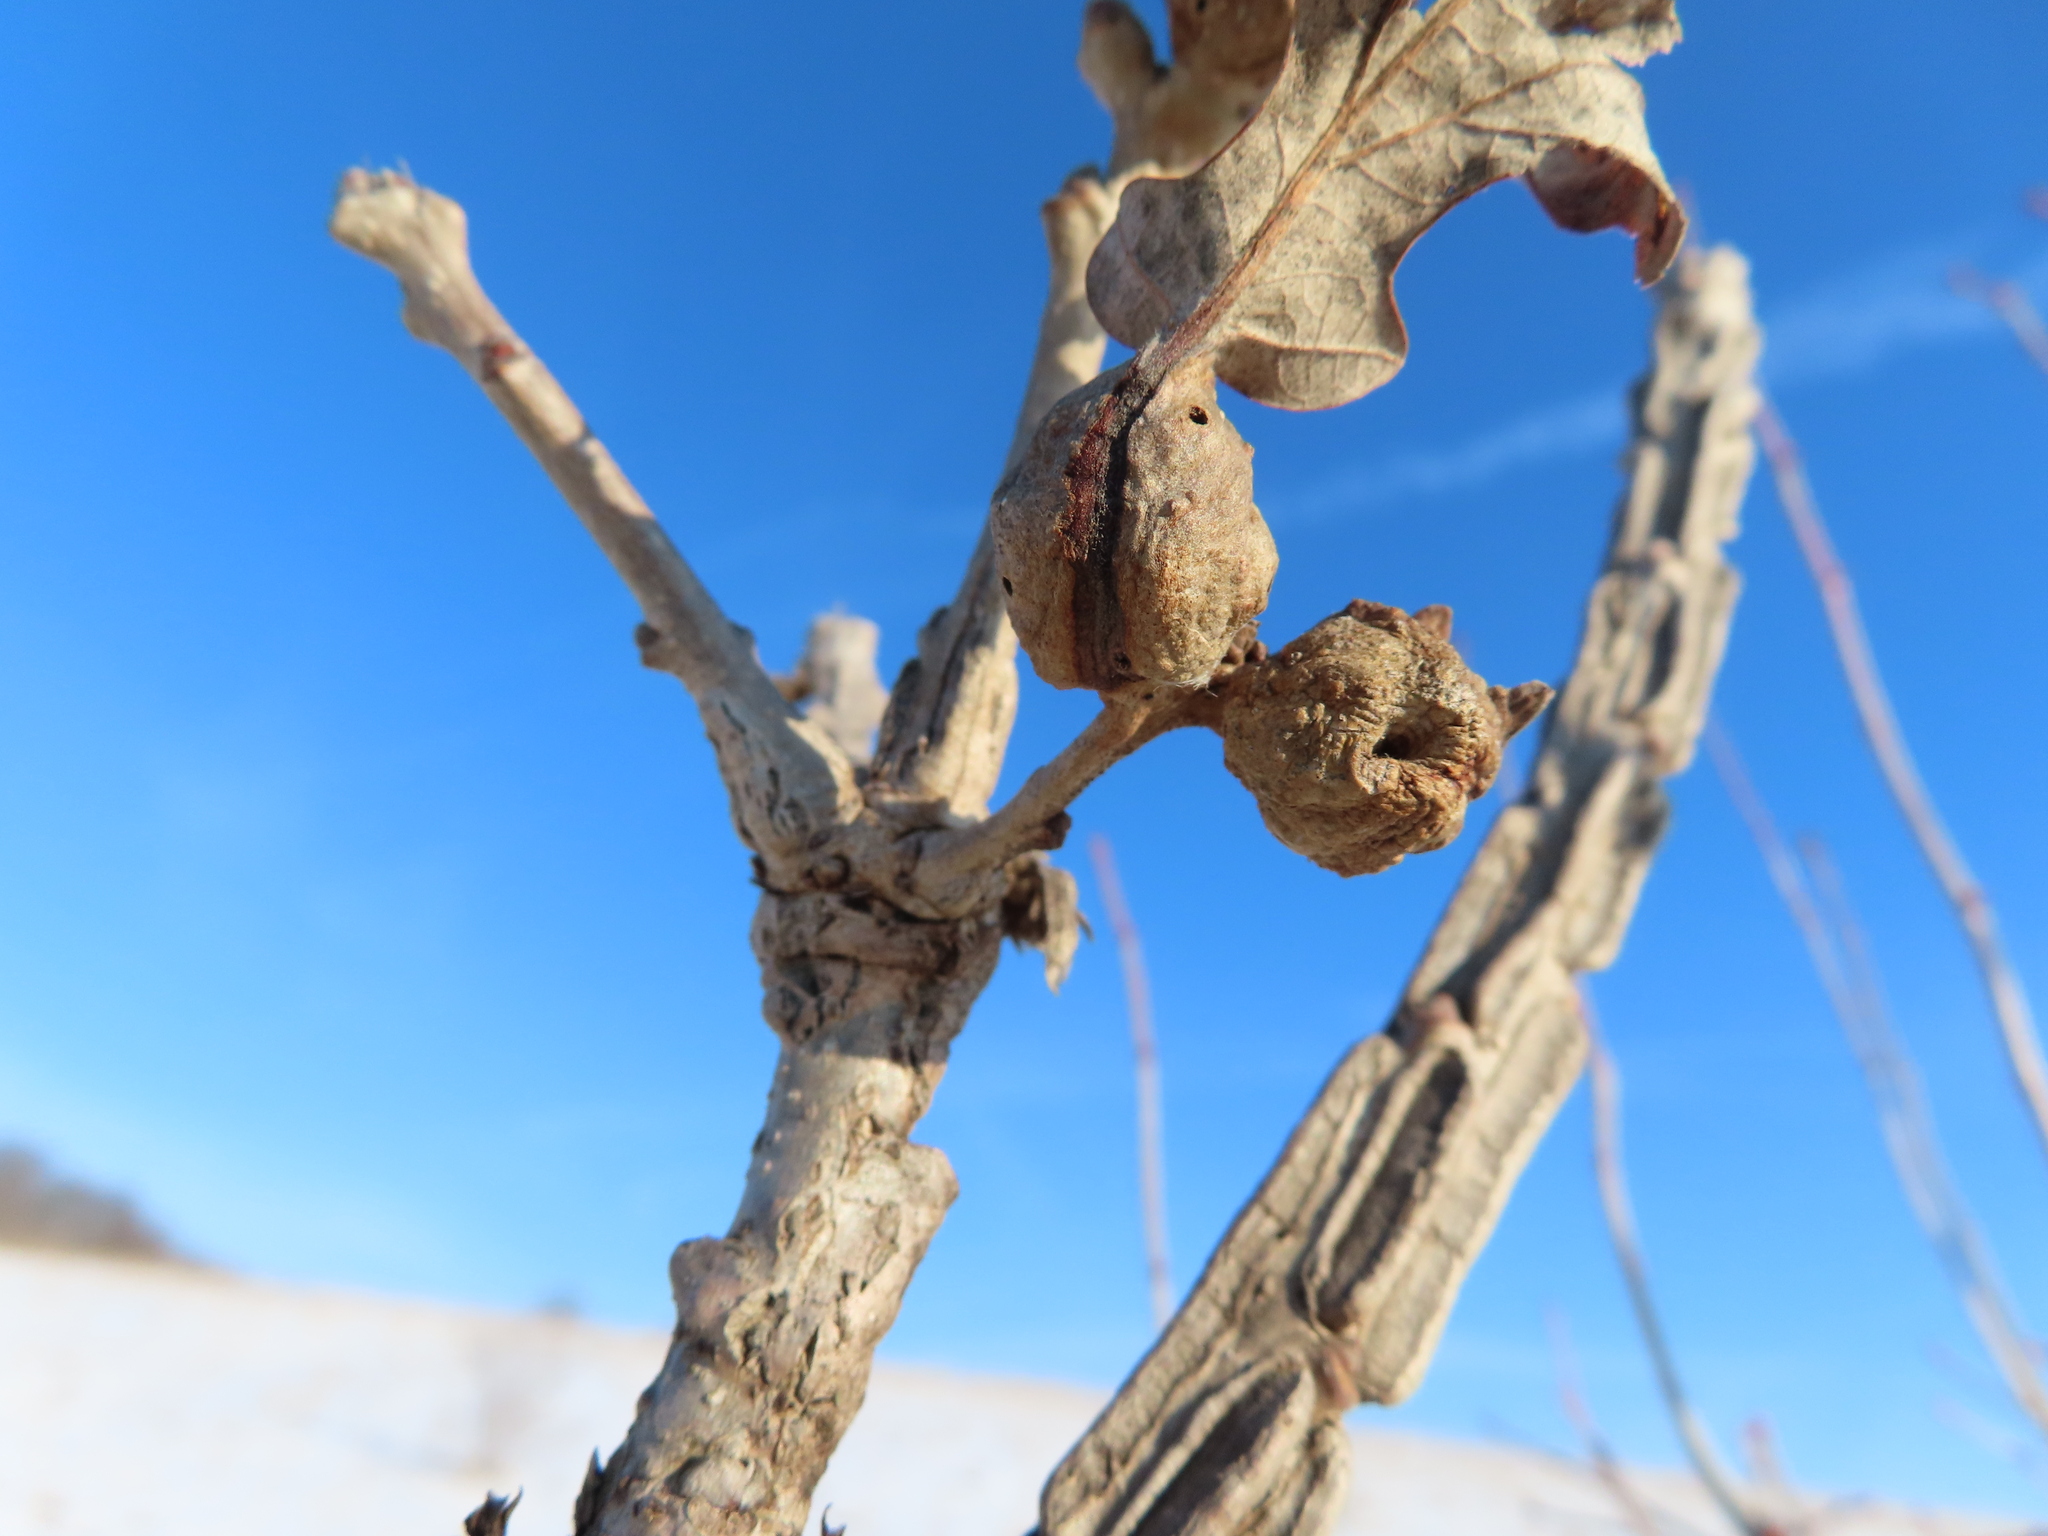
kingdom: Animalia
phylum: Arthropoda
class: Insecta
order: Hymenoptera
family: Cynipidae
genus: Andricus
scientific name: Andricus
